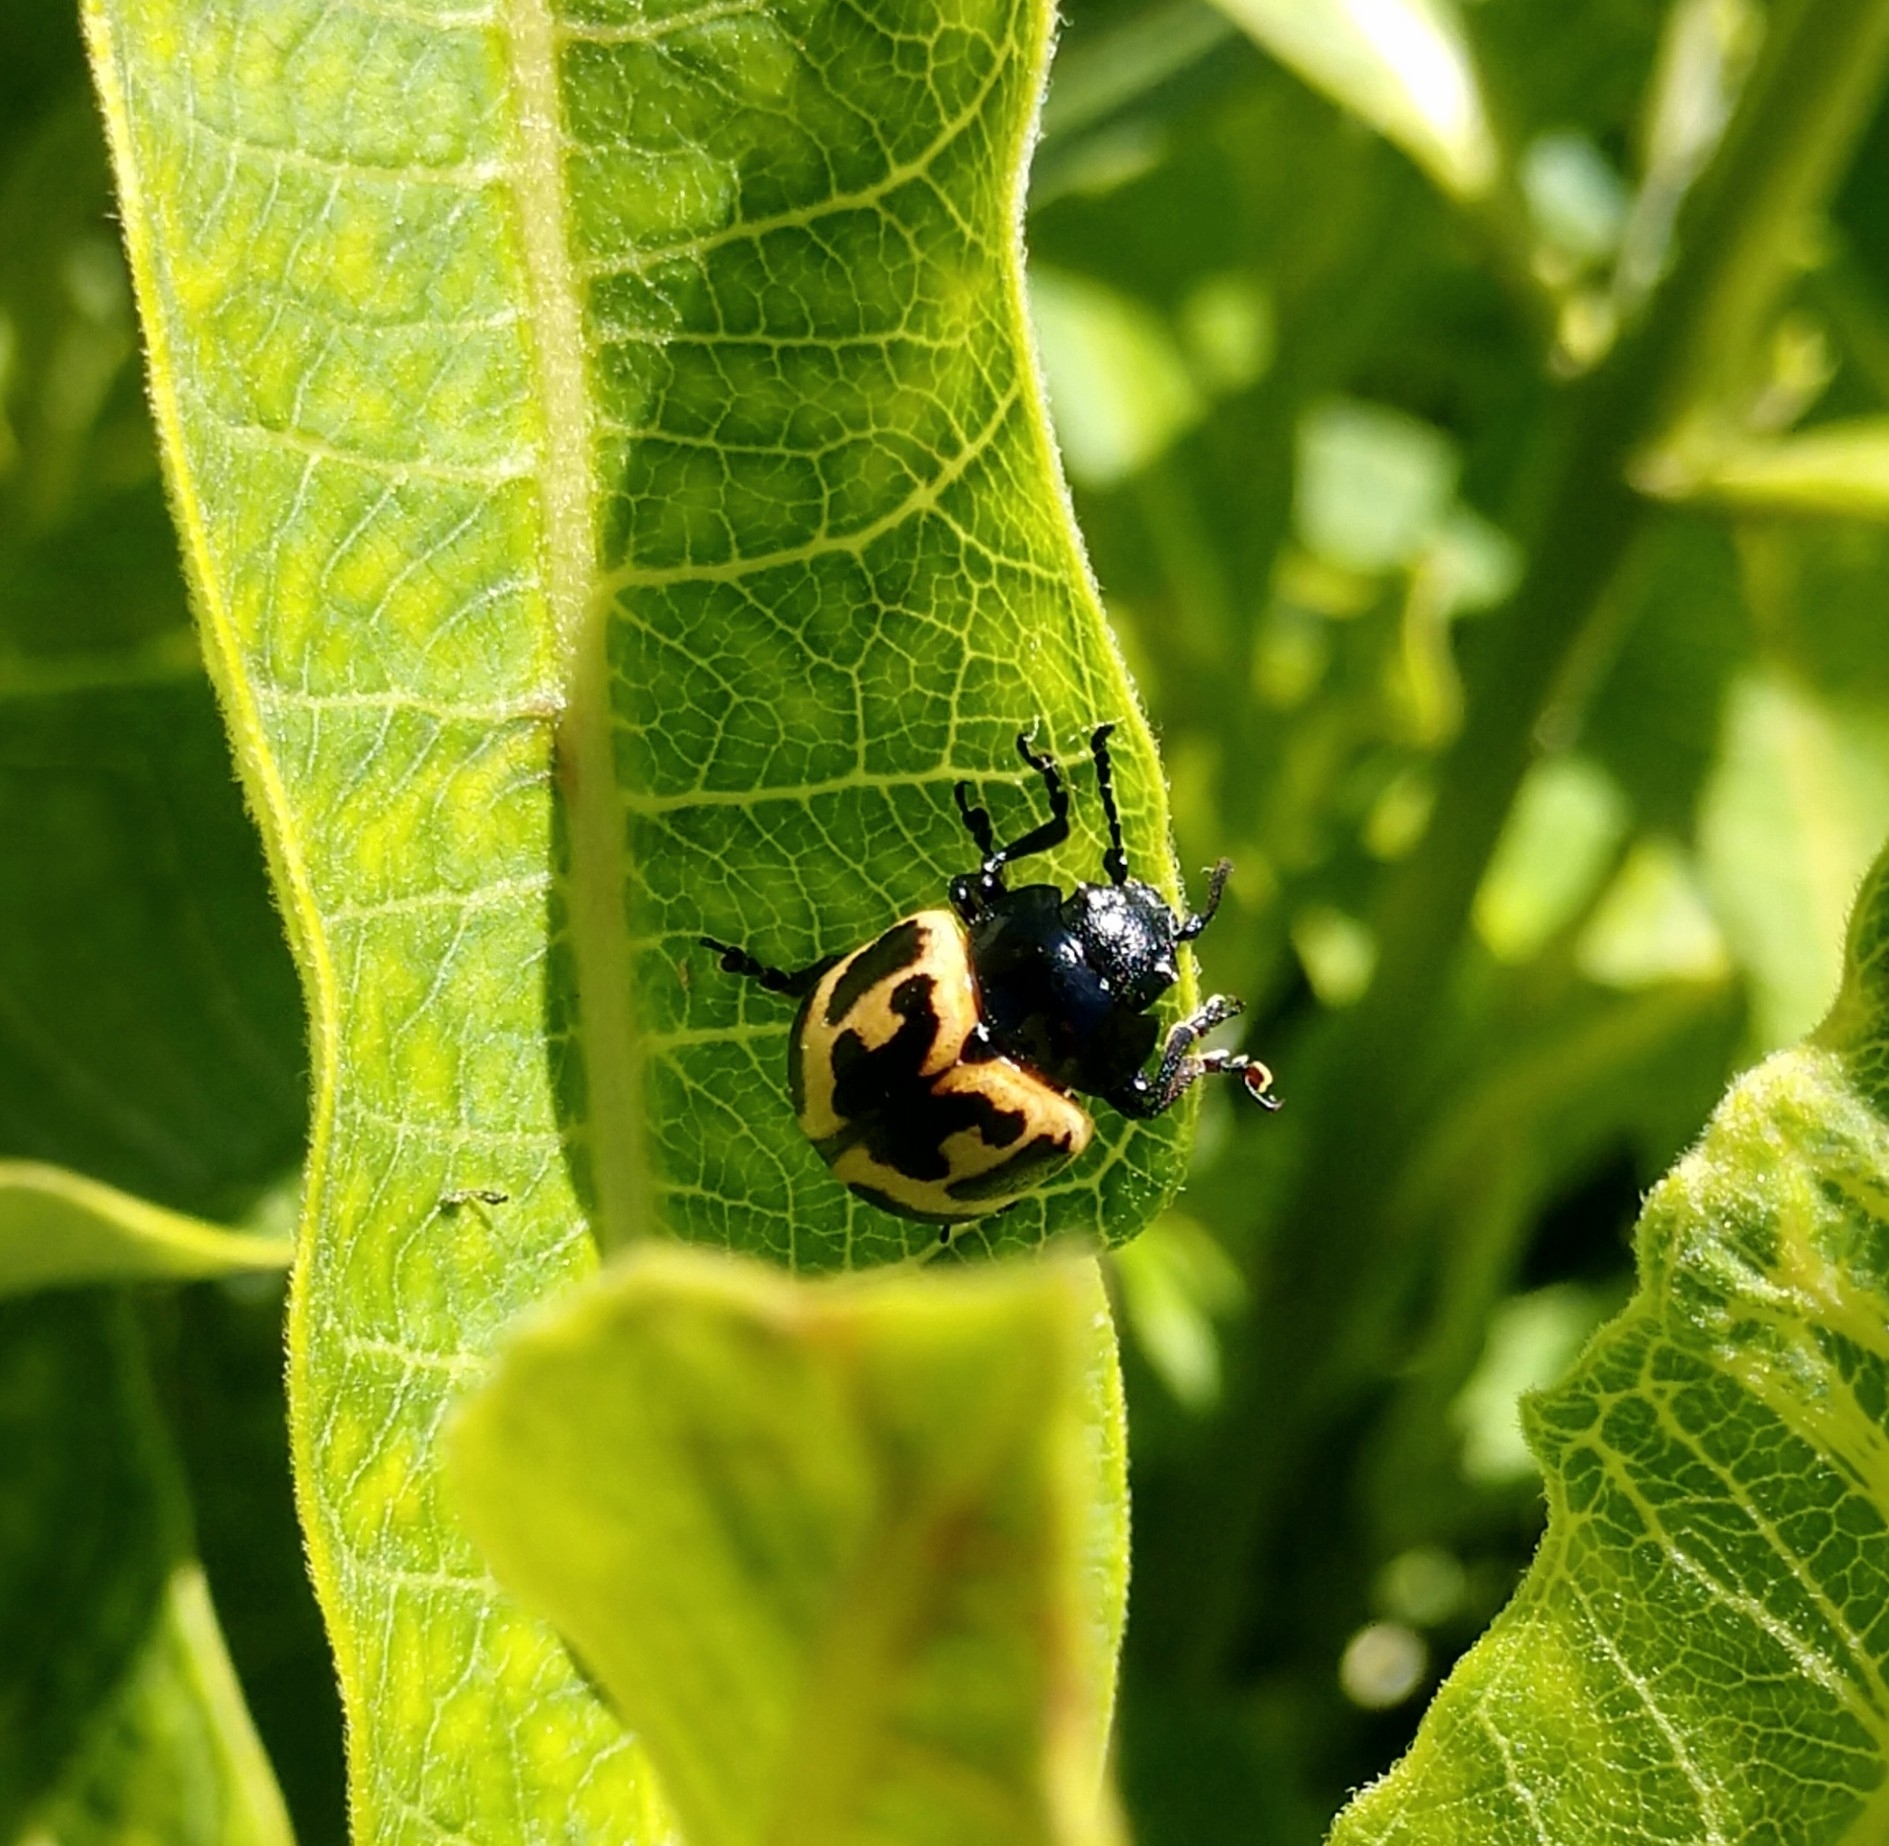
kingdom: Animalia
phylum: Arthropoda
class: Insecta
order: Coleoptera
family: Chrysomelidae
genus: Labidomera
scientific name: Labidomera clivicollis
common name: Swamp milkweed leaf beetle
